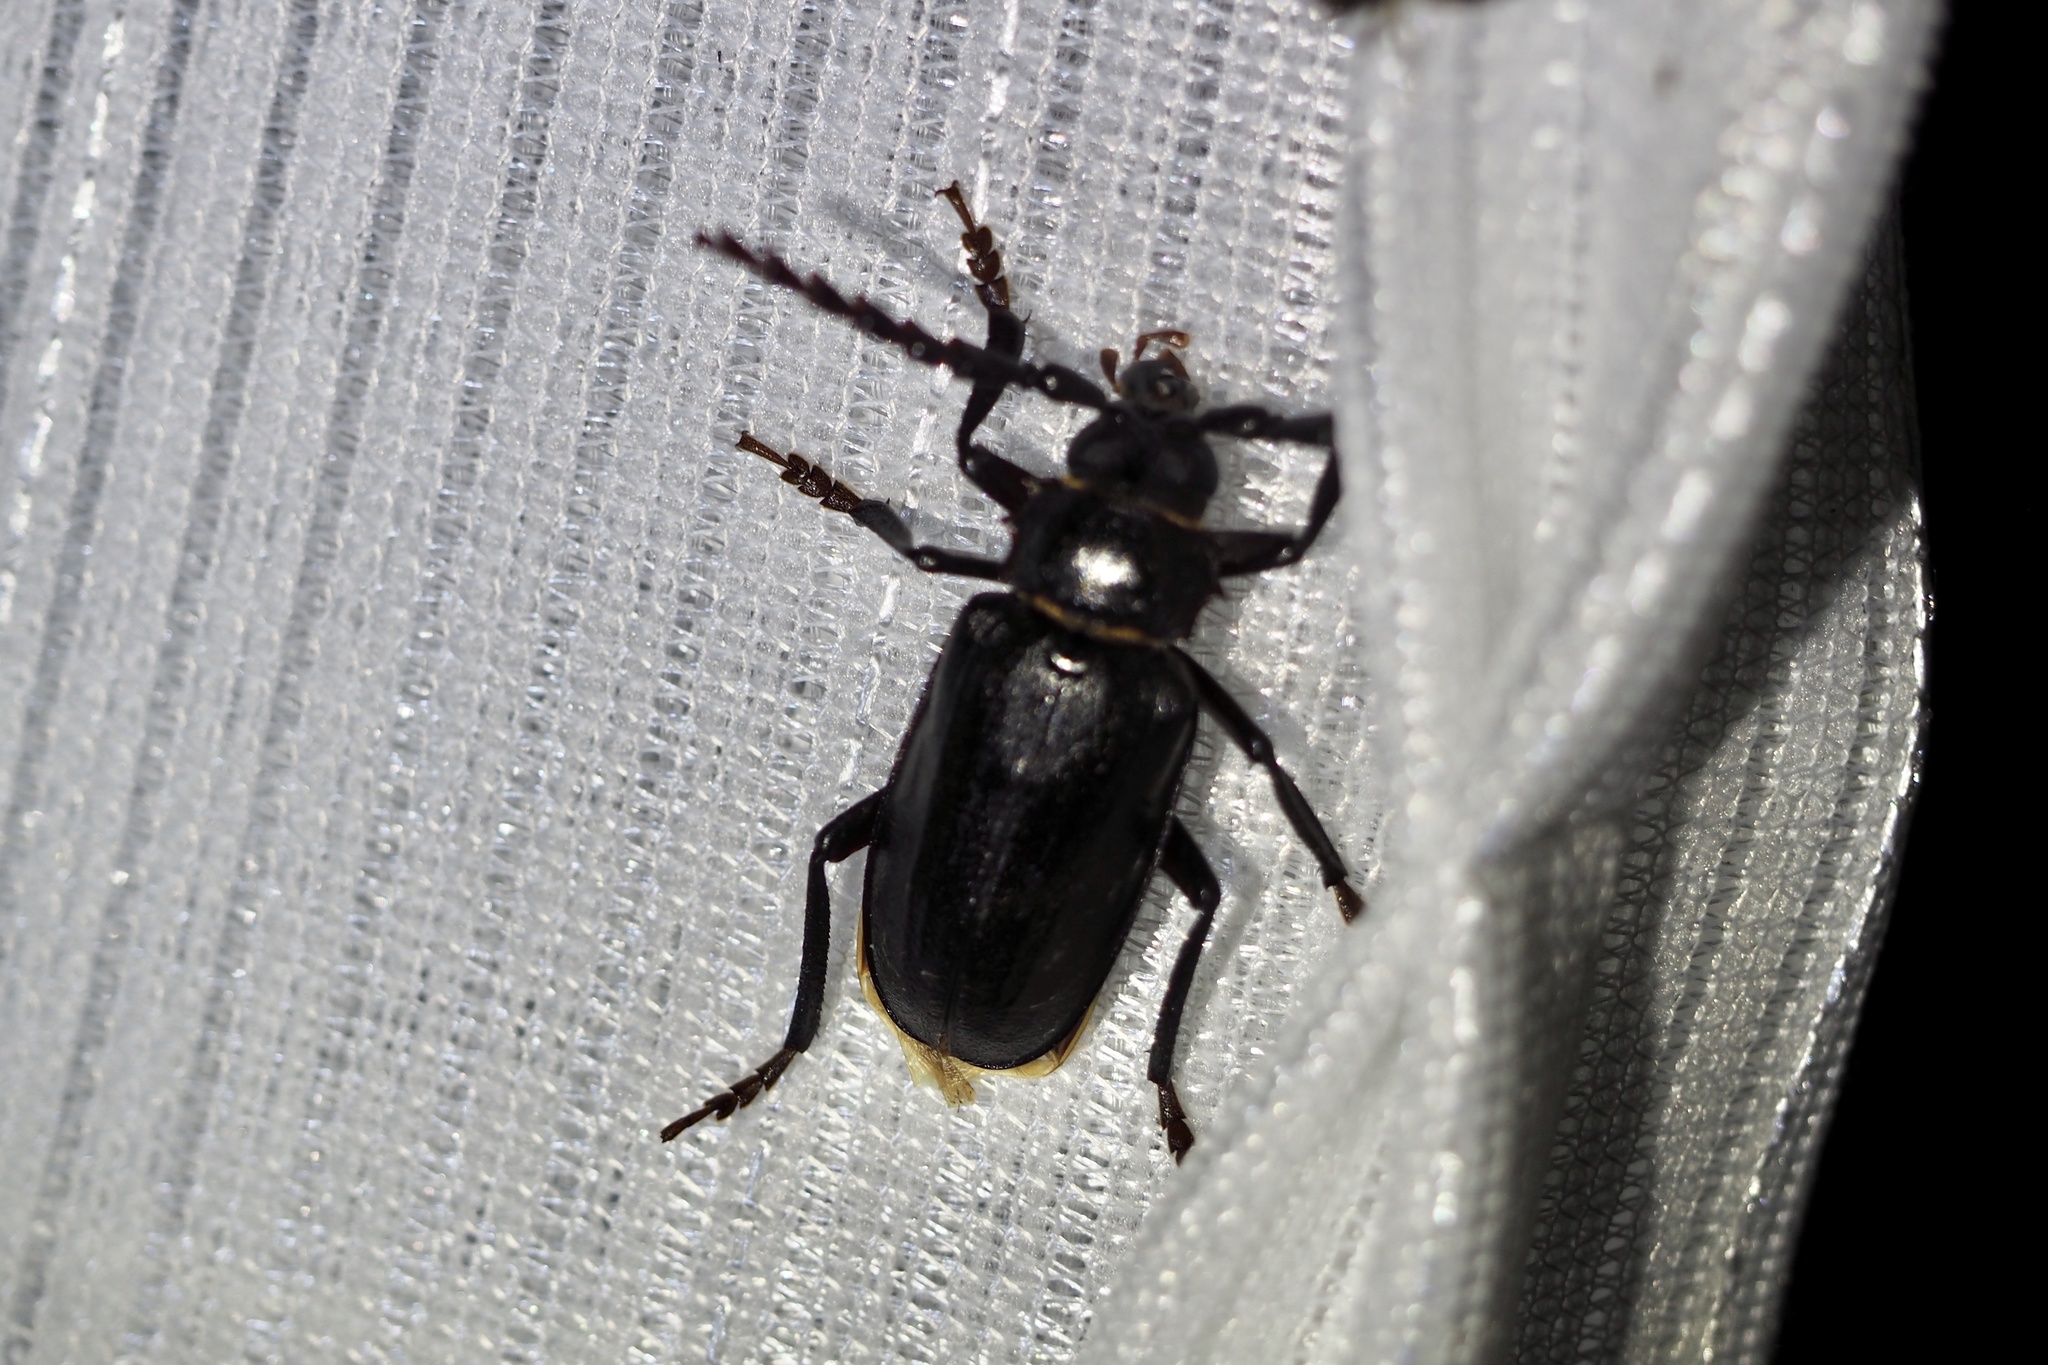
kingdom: Animalia
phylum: Arthropoda
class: Insecta
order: Coleoptera
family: Cerambycidae
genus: Prionus
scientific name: Prionus insularis
